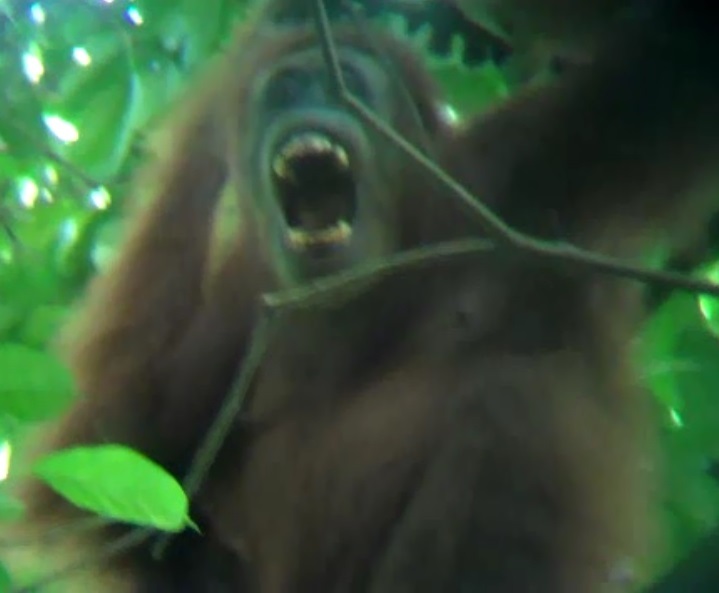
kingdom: Animalia
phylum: Chordata
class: Mammalia
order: Primates
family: Hominidae
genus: Pongo
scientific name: Pongo abelii
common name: Sumatran orangutan
